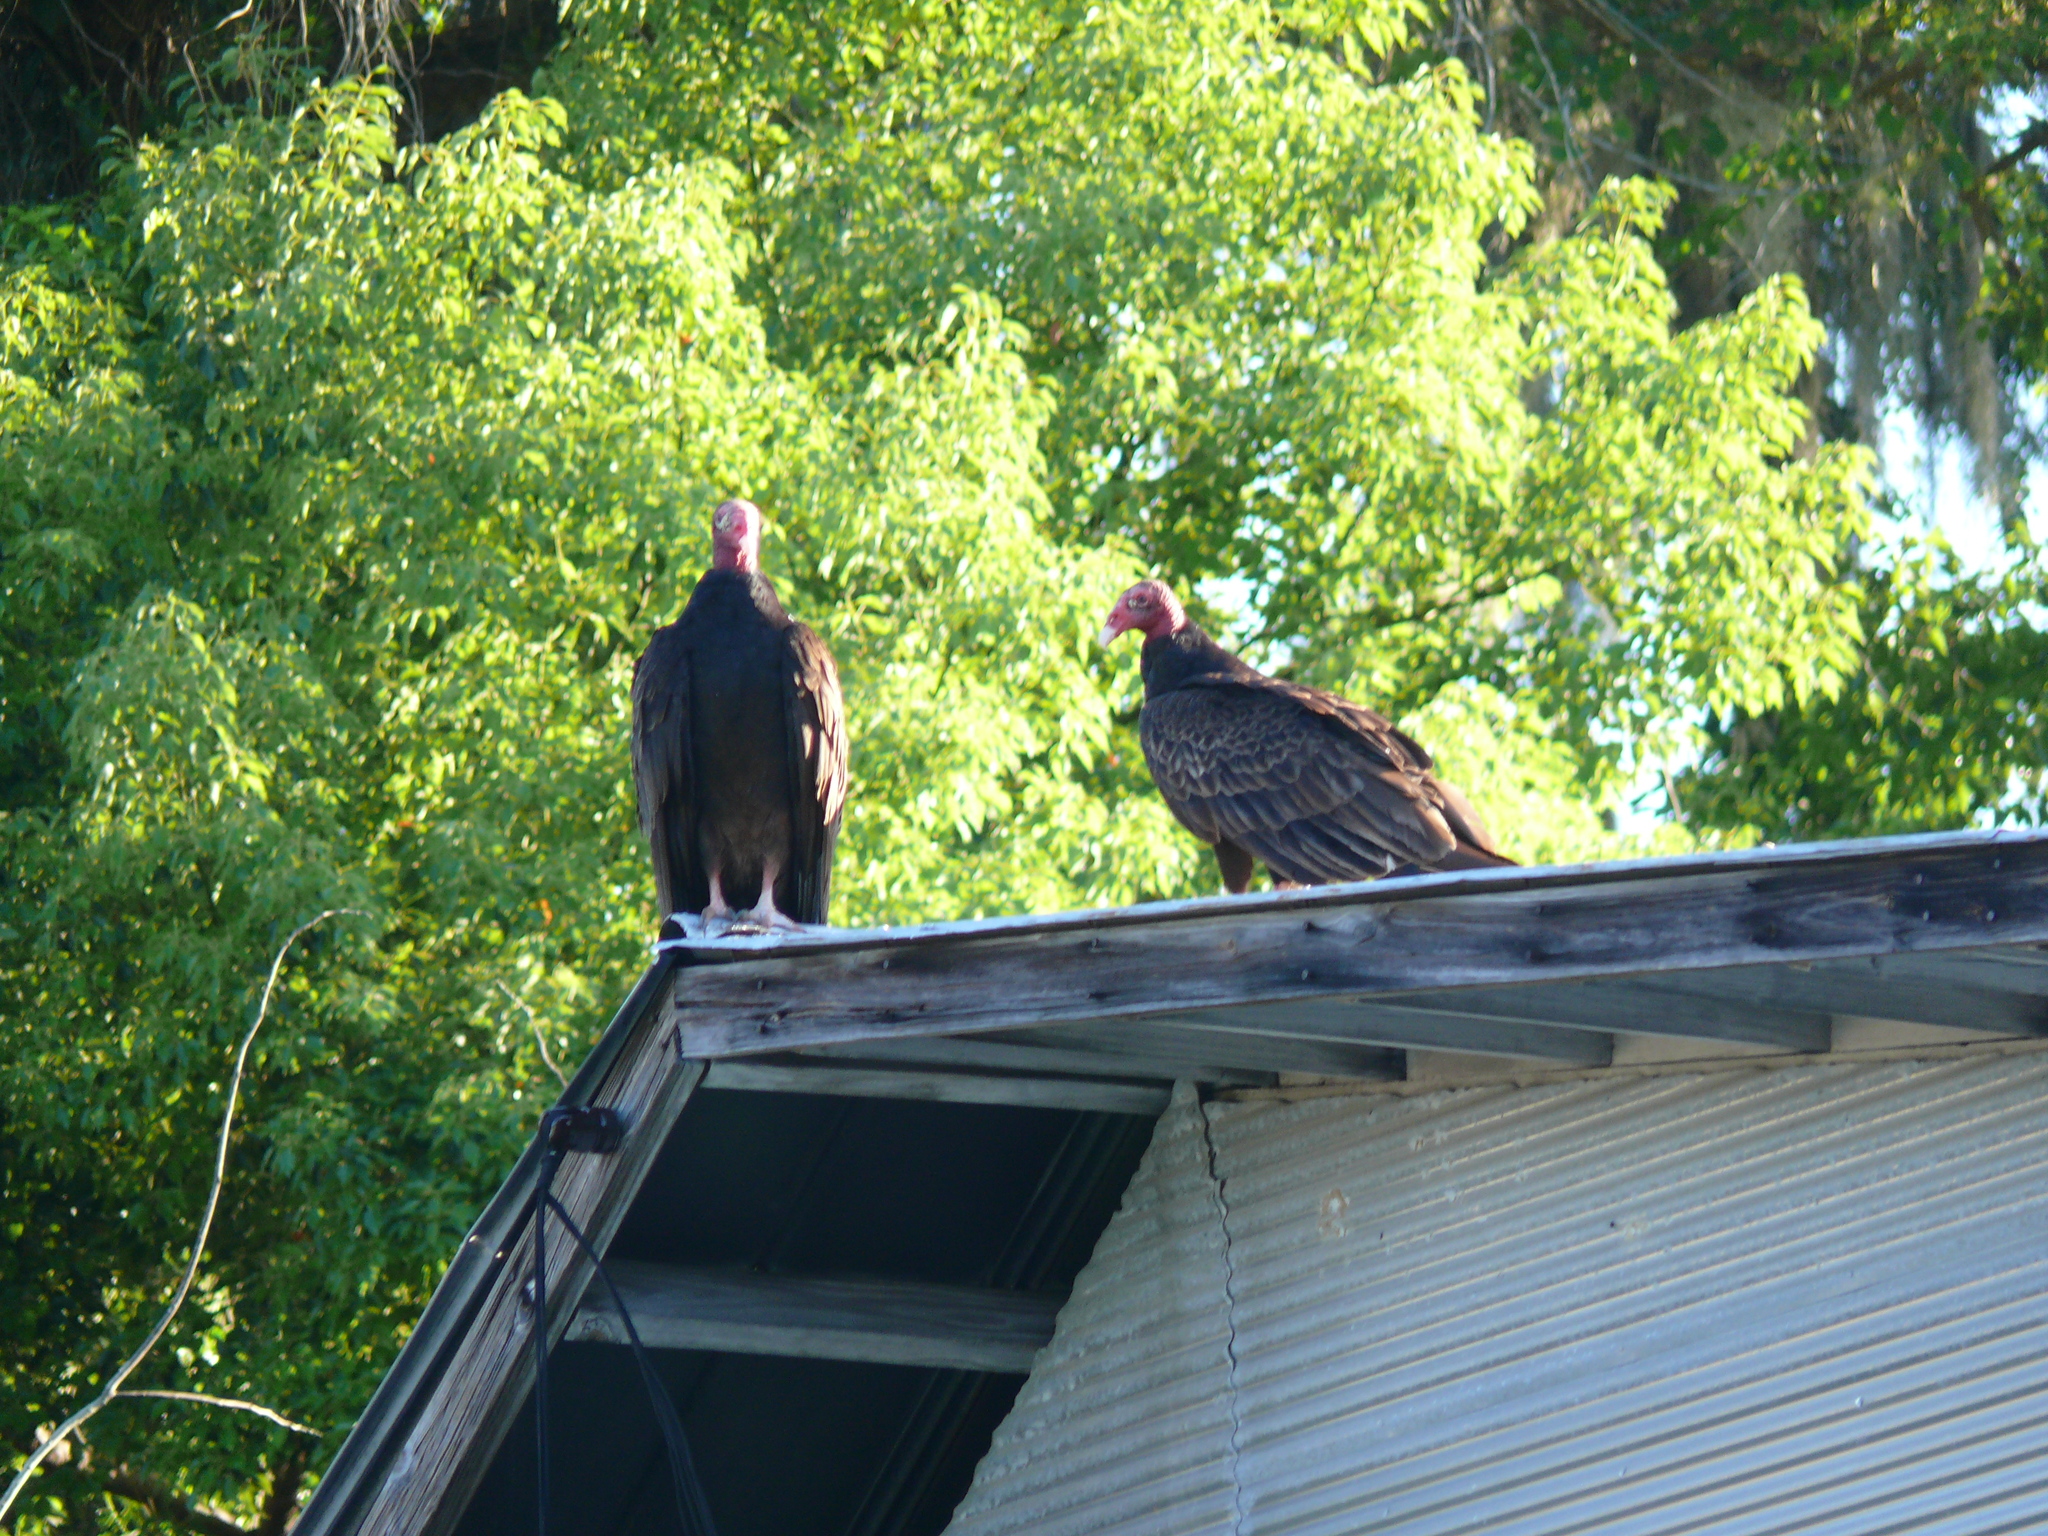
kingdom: Animalia
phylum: Chordata
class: Aves
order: Accipitriformes
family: Cathartidae
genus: Cathartes
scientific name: Cathartes aura
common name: Turkey vulture
